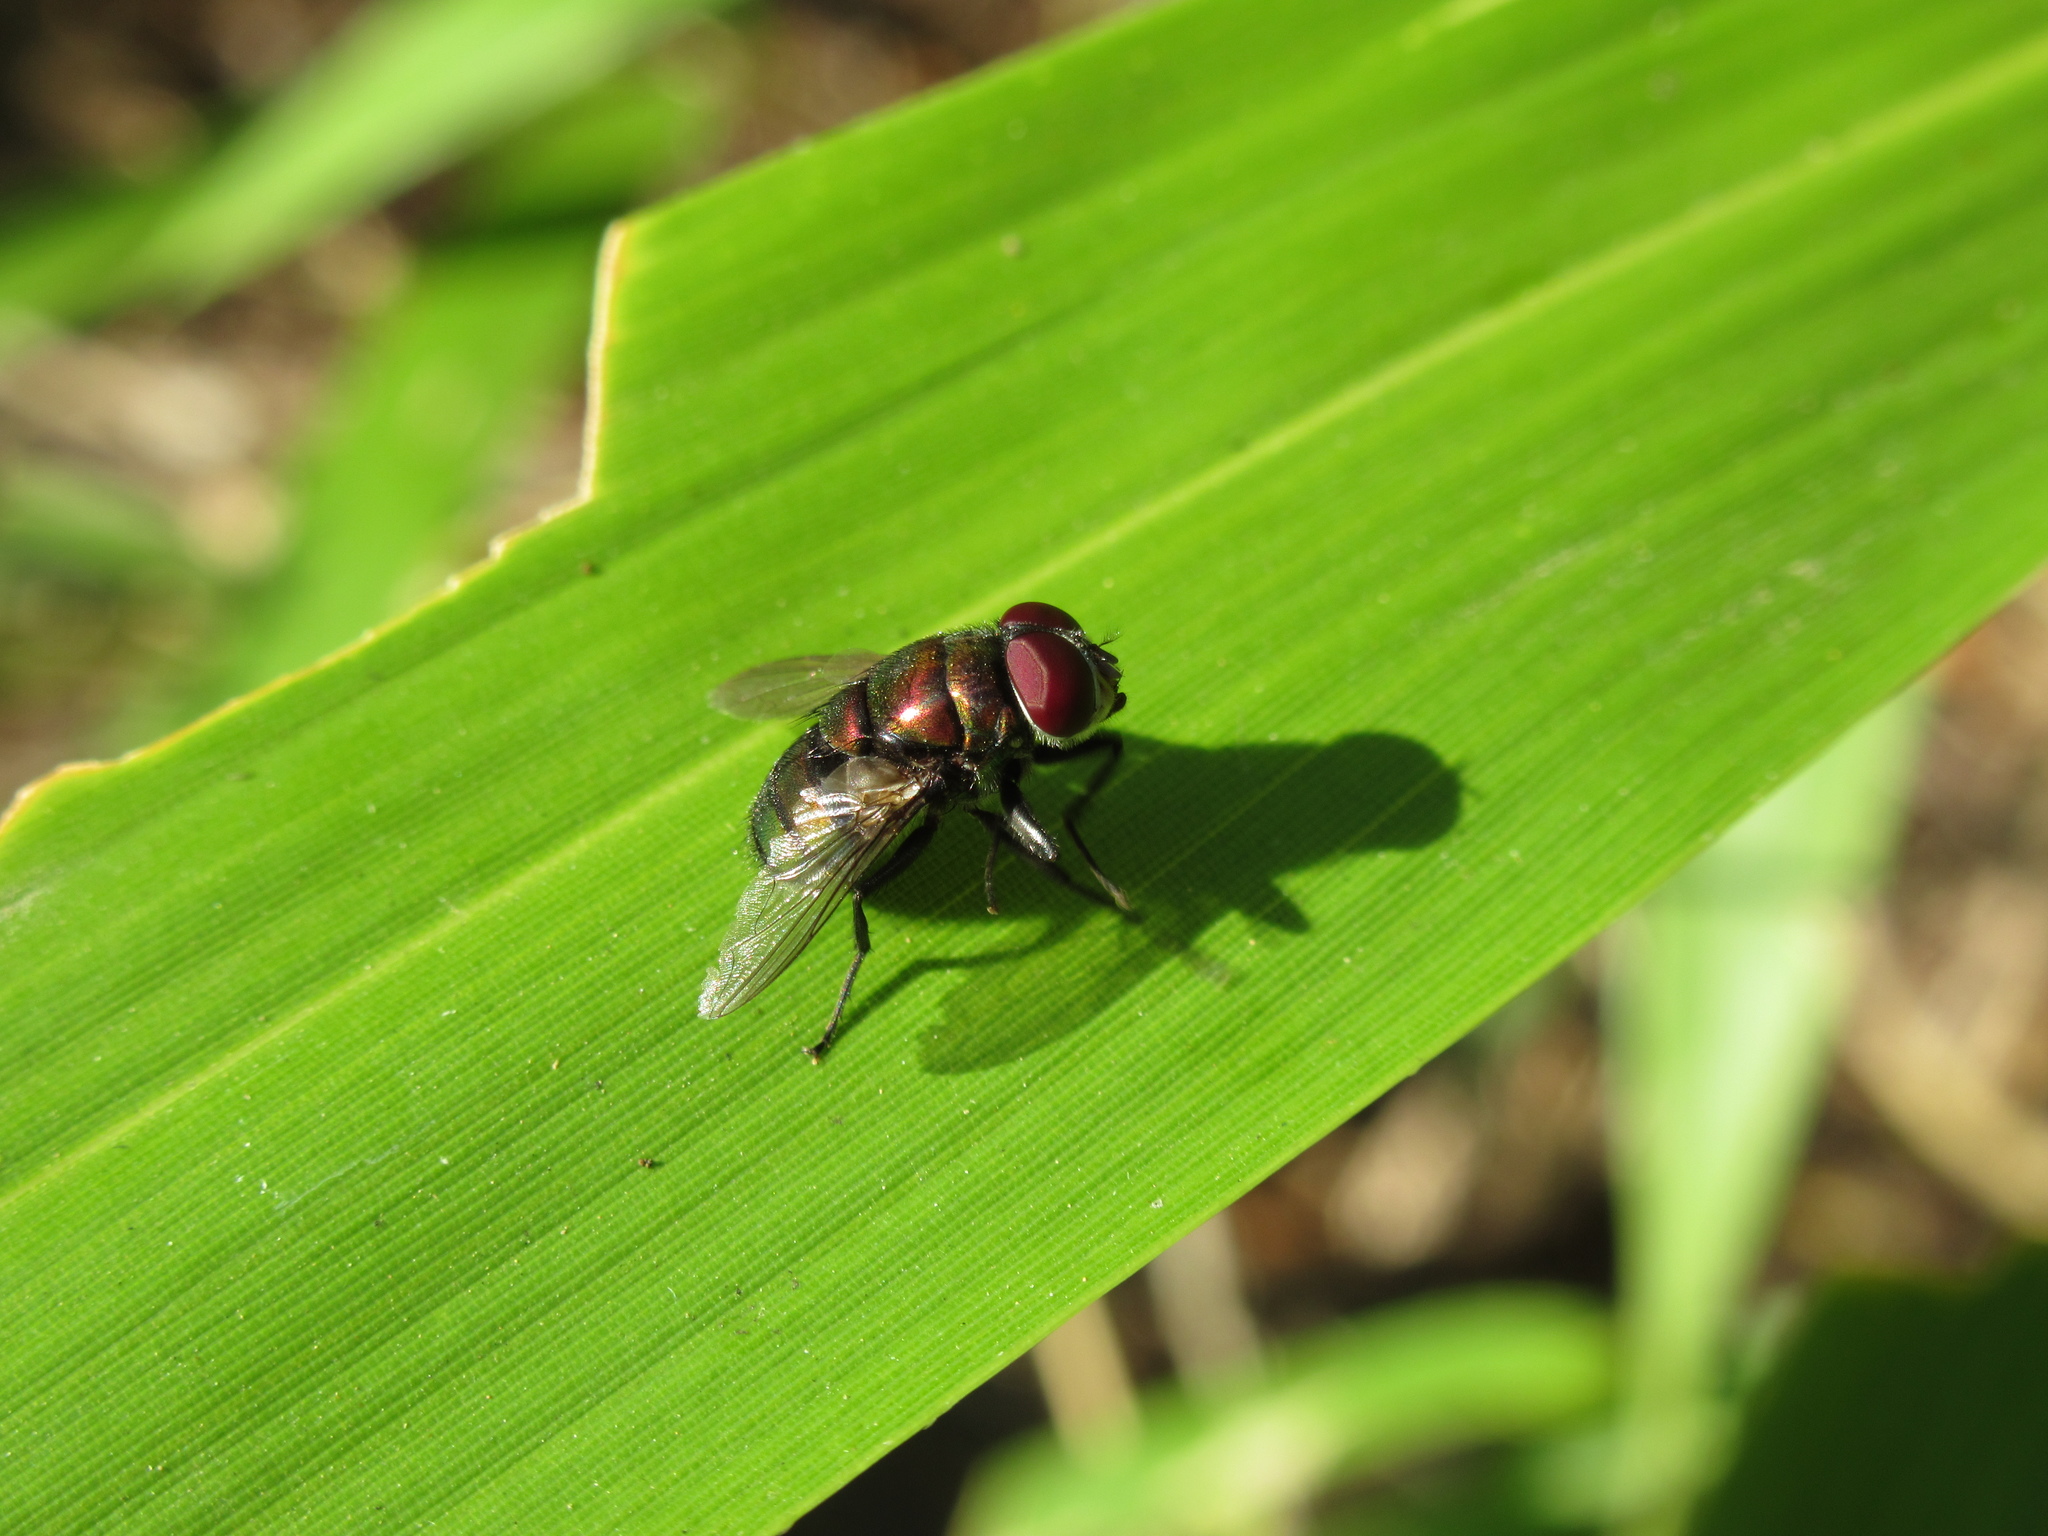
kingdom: Animalia
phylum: Arthropoda
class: Insecta
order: Diptera
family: Calliphoridae
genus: Chrysomya
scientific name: Chrysomya rufifacies
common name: Blow fly
